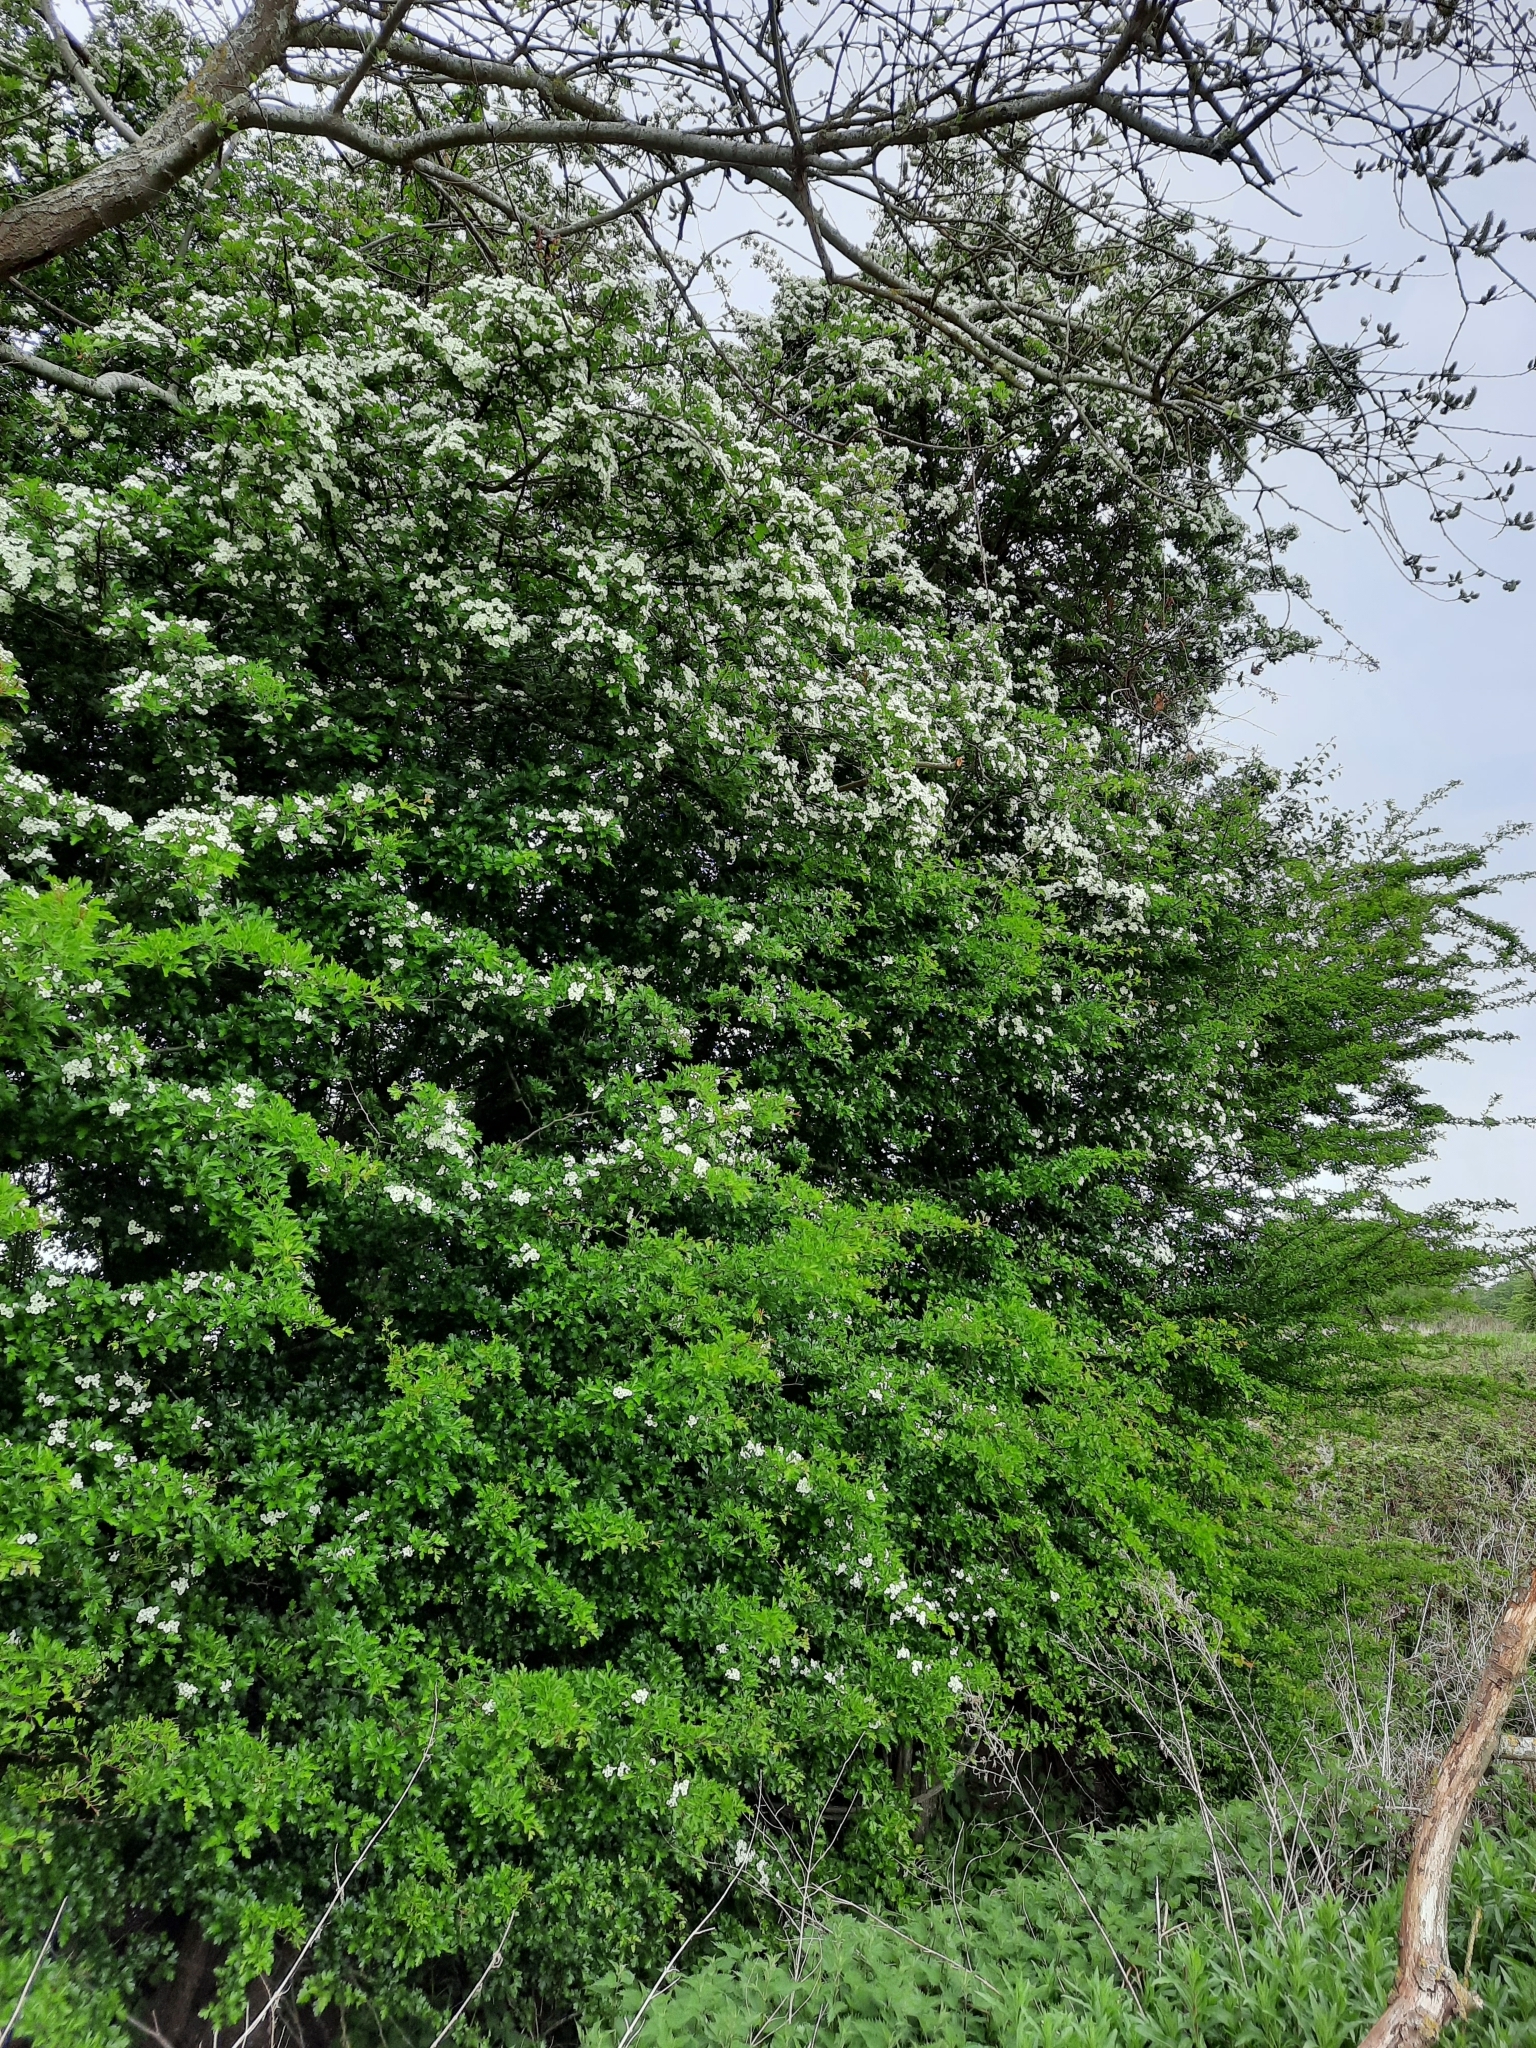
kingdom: Plantae
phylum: Tracheophyta
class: Magnoliopsida
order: Rosales
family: Rosaceae
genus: Crataegus
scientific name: Crataegus monogyna
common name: Hawthorn
